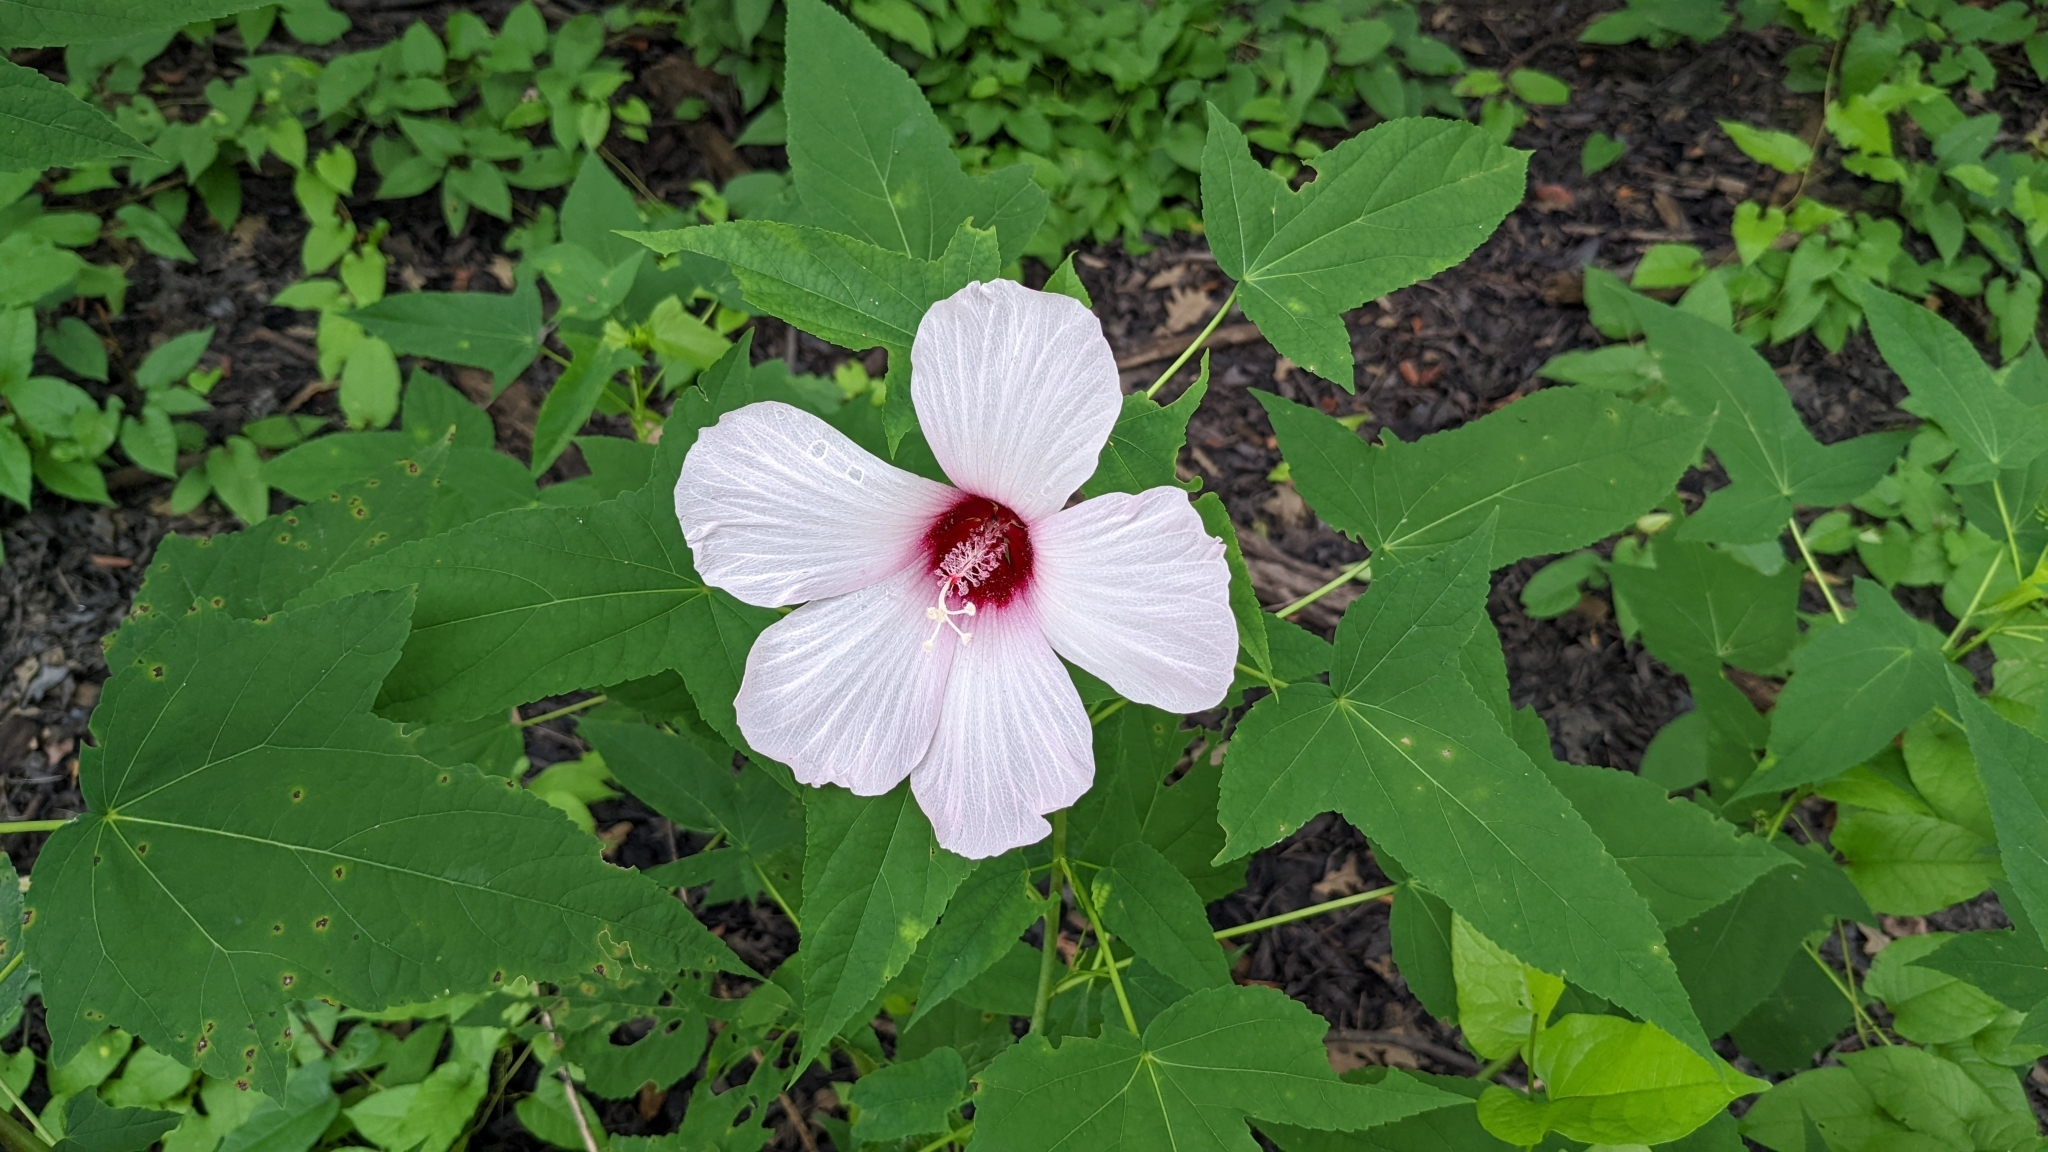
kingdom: Plantae
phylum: Tracheophyta
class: Magnoliopsida
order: Malvales
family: Malvaceae
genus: Hibiscus
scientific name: Hibiscus laevis
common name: Scarlet rose-mallow
